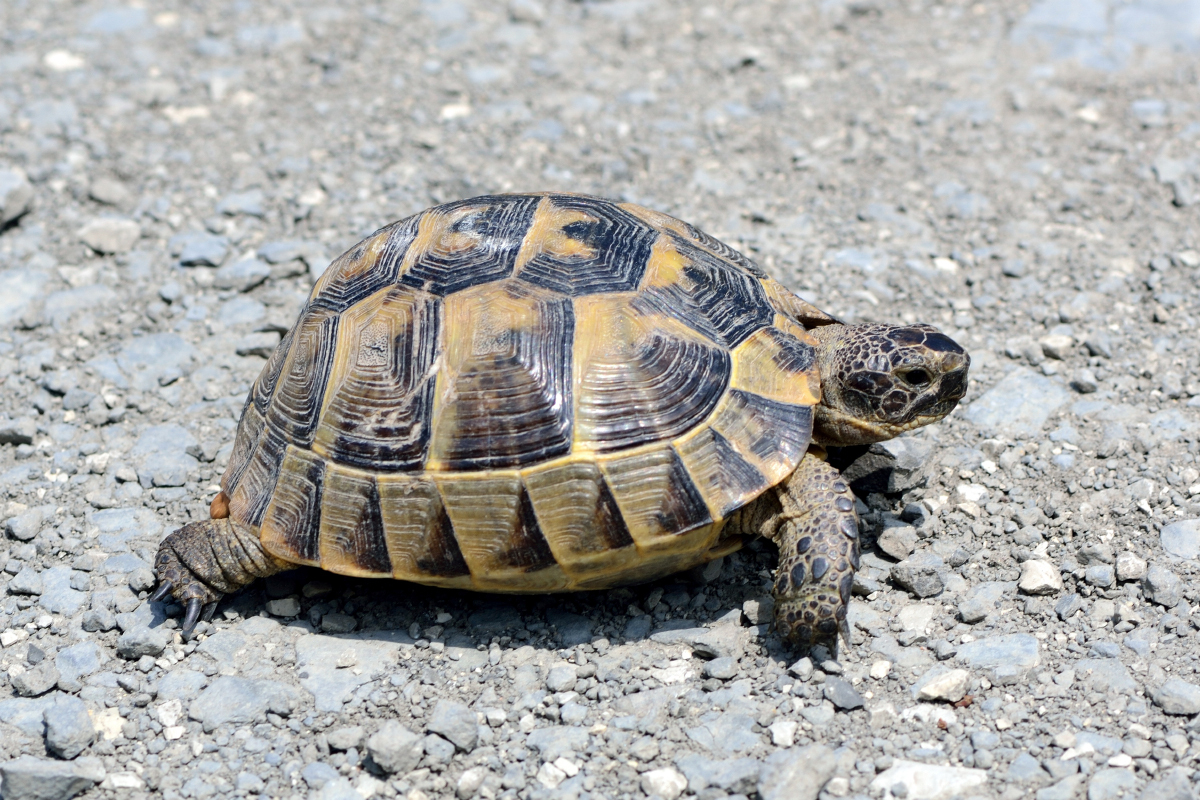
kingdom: Animalia
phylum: Chordata
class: Testudines
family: Testudinidae
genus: Testudo
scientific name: Testudo graeca
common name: Common tortoise
